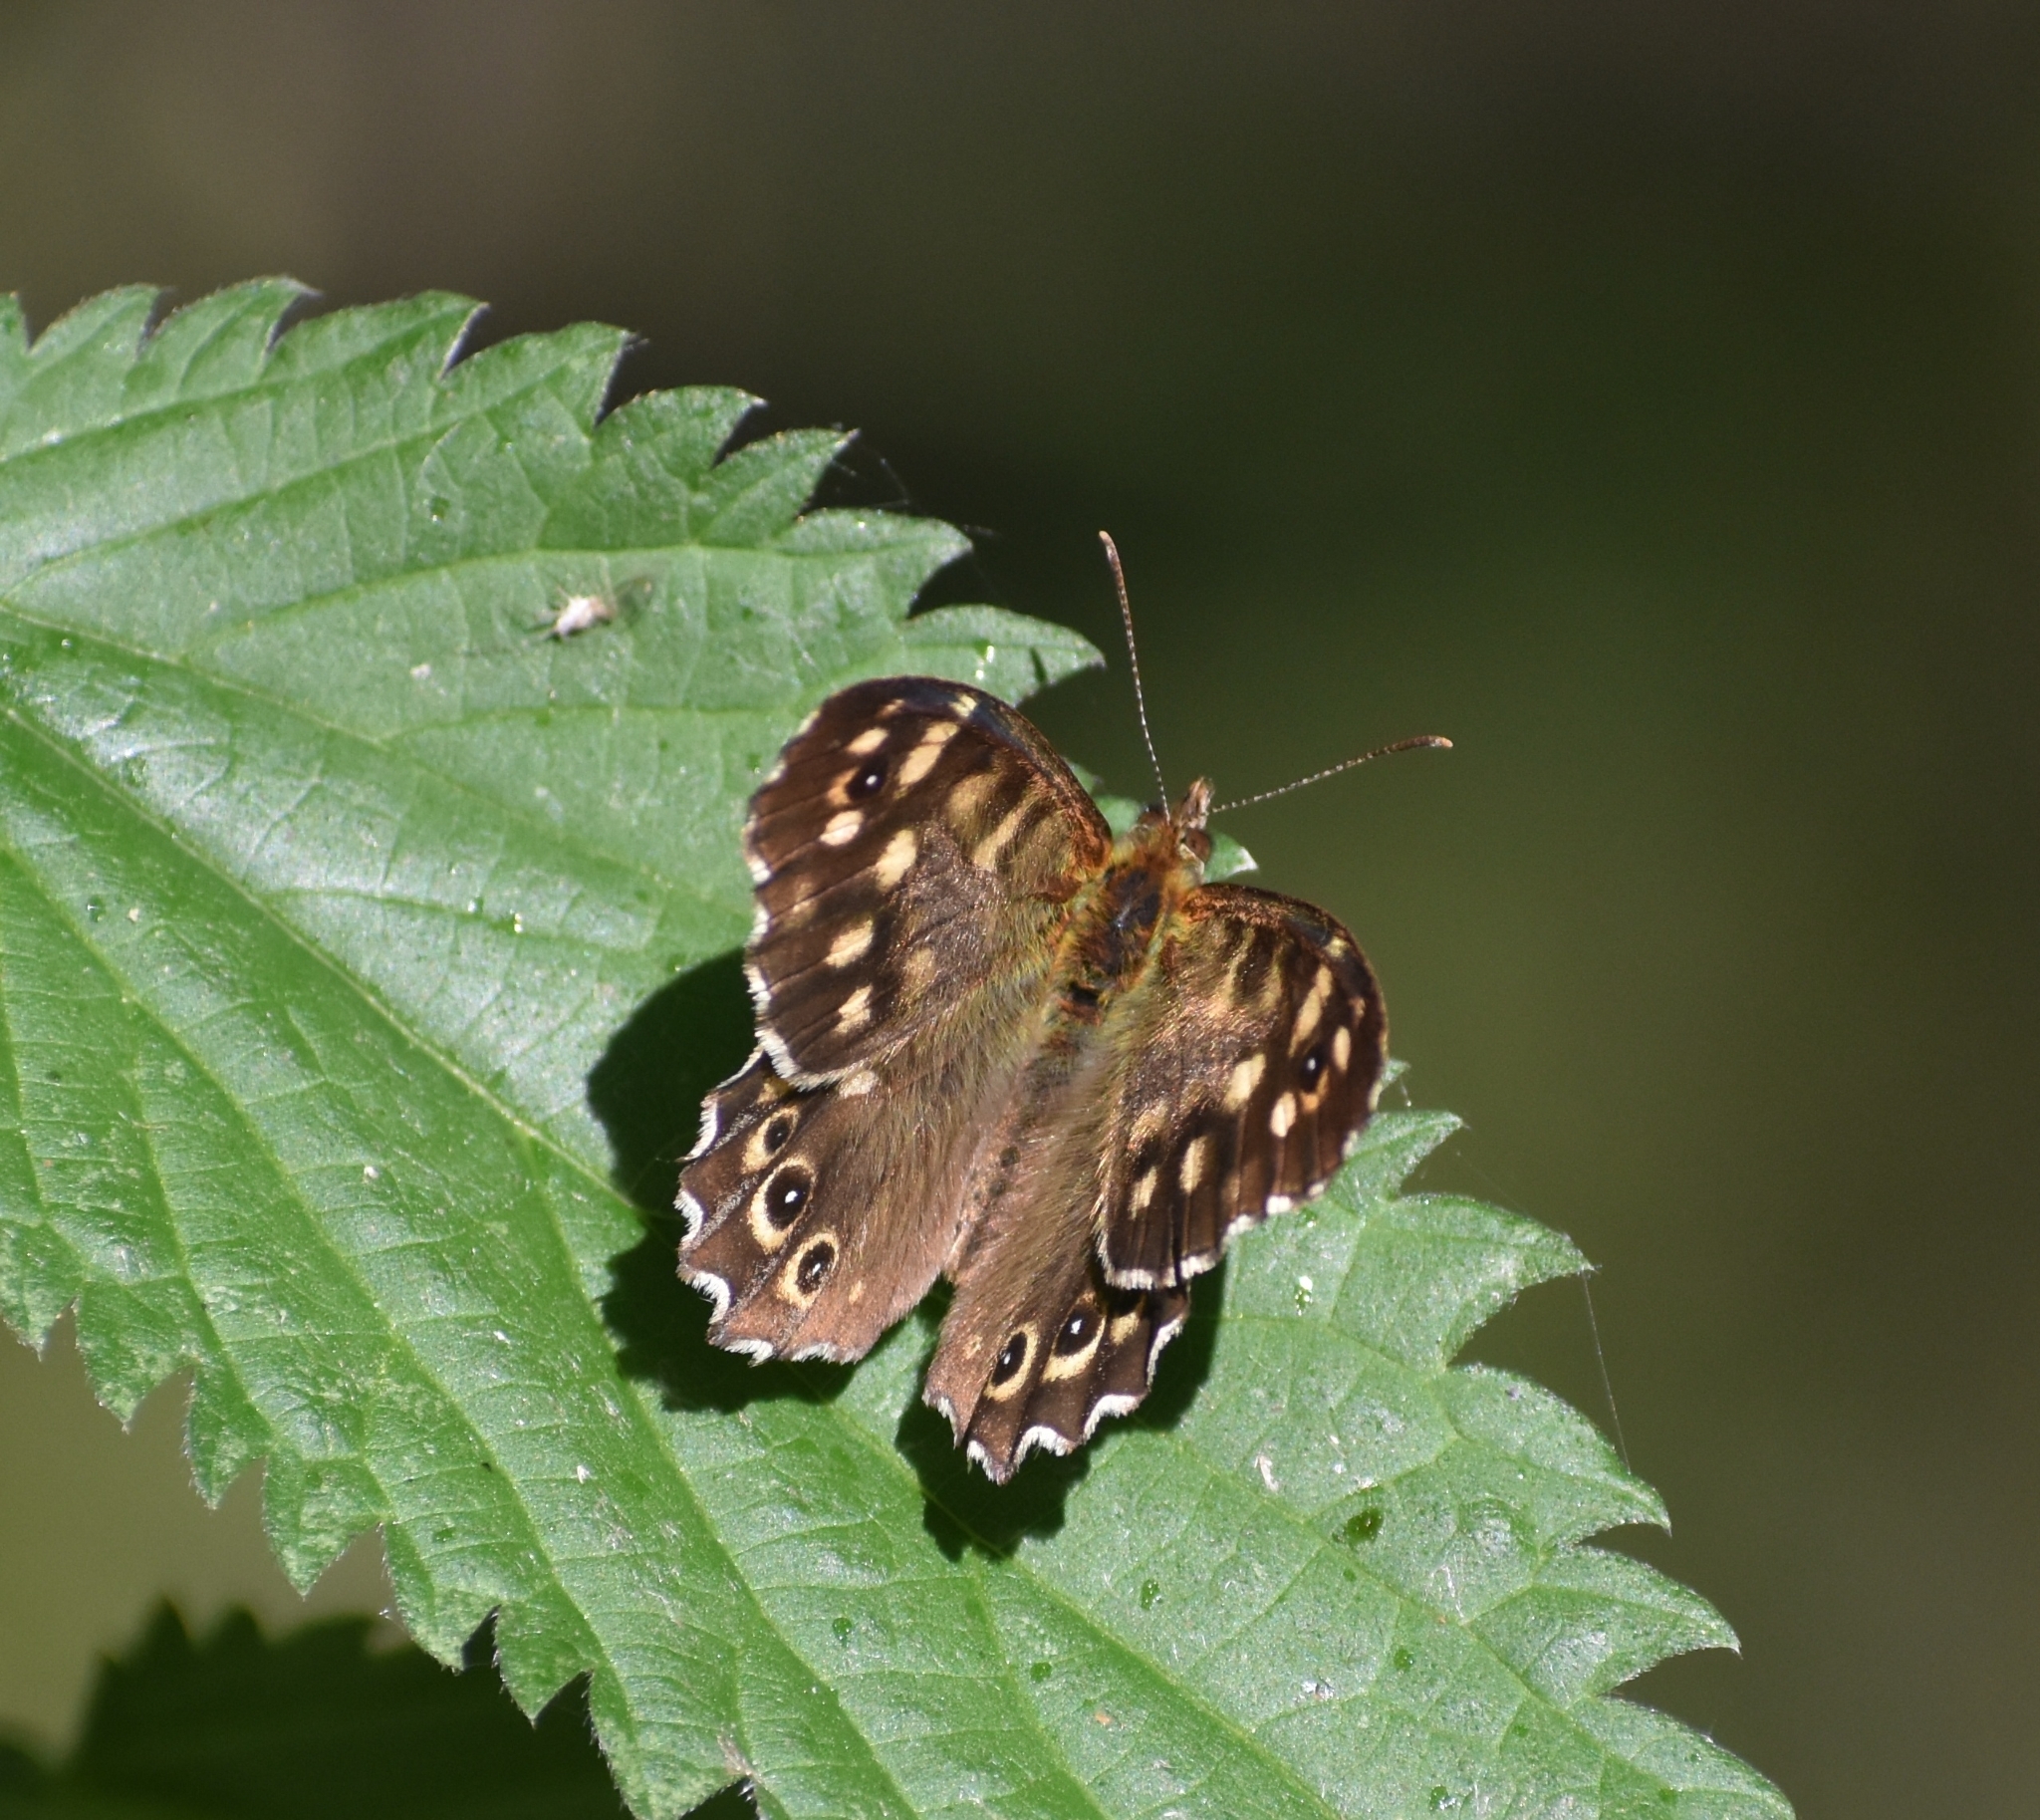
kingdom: Animalia
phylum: Arthropoda
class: Insecta
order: Lepidoptera
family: Nymphalidae
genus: Pararge
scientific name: Pararge aegeria
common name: Speckled wood
